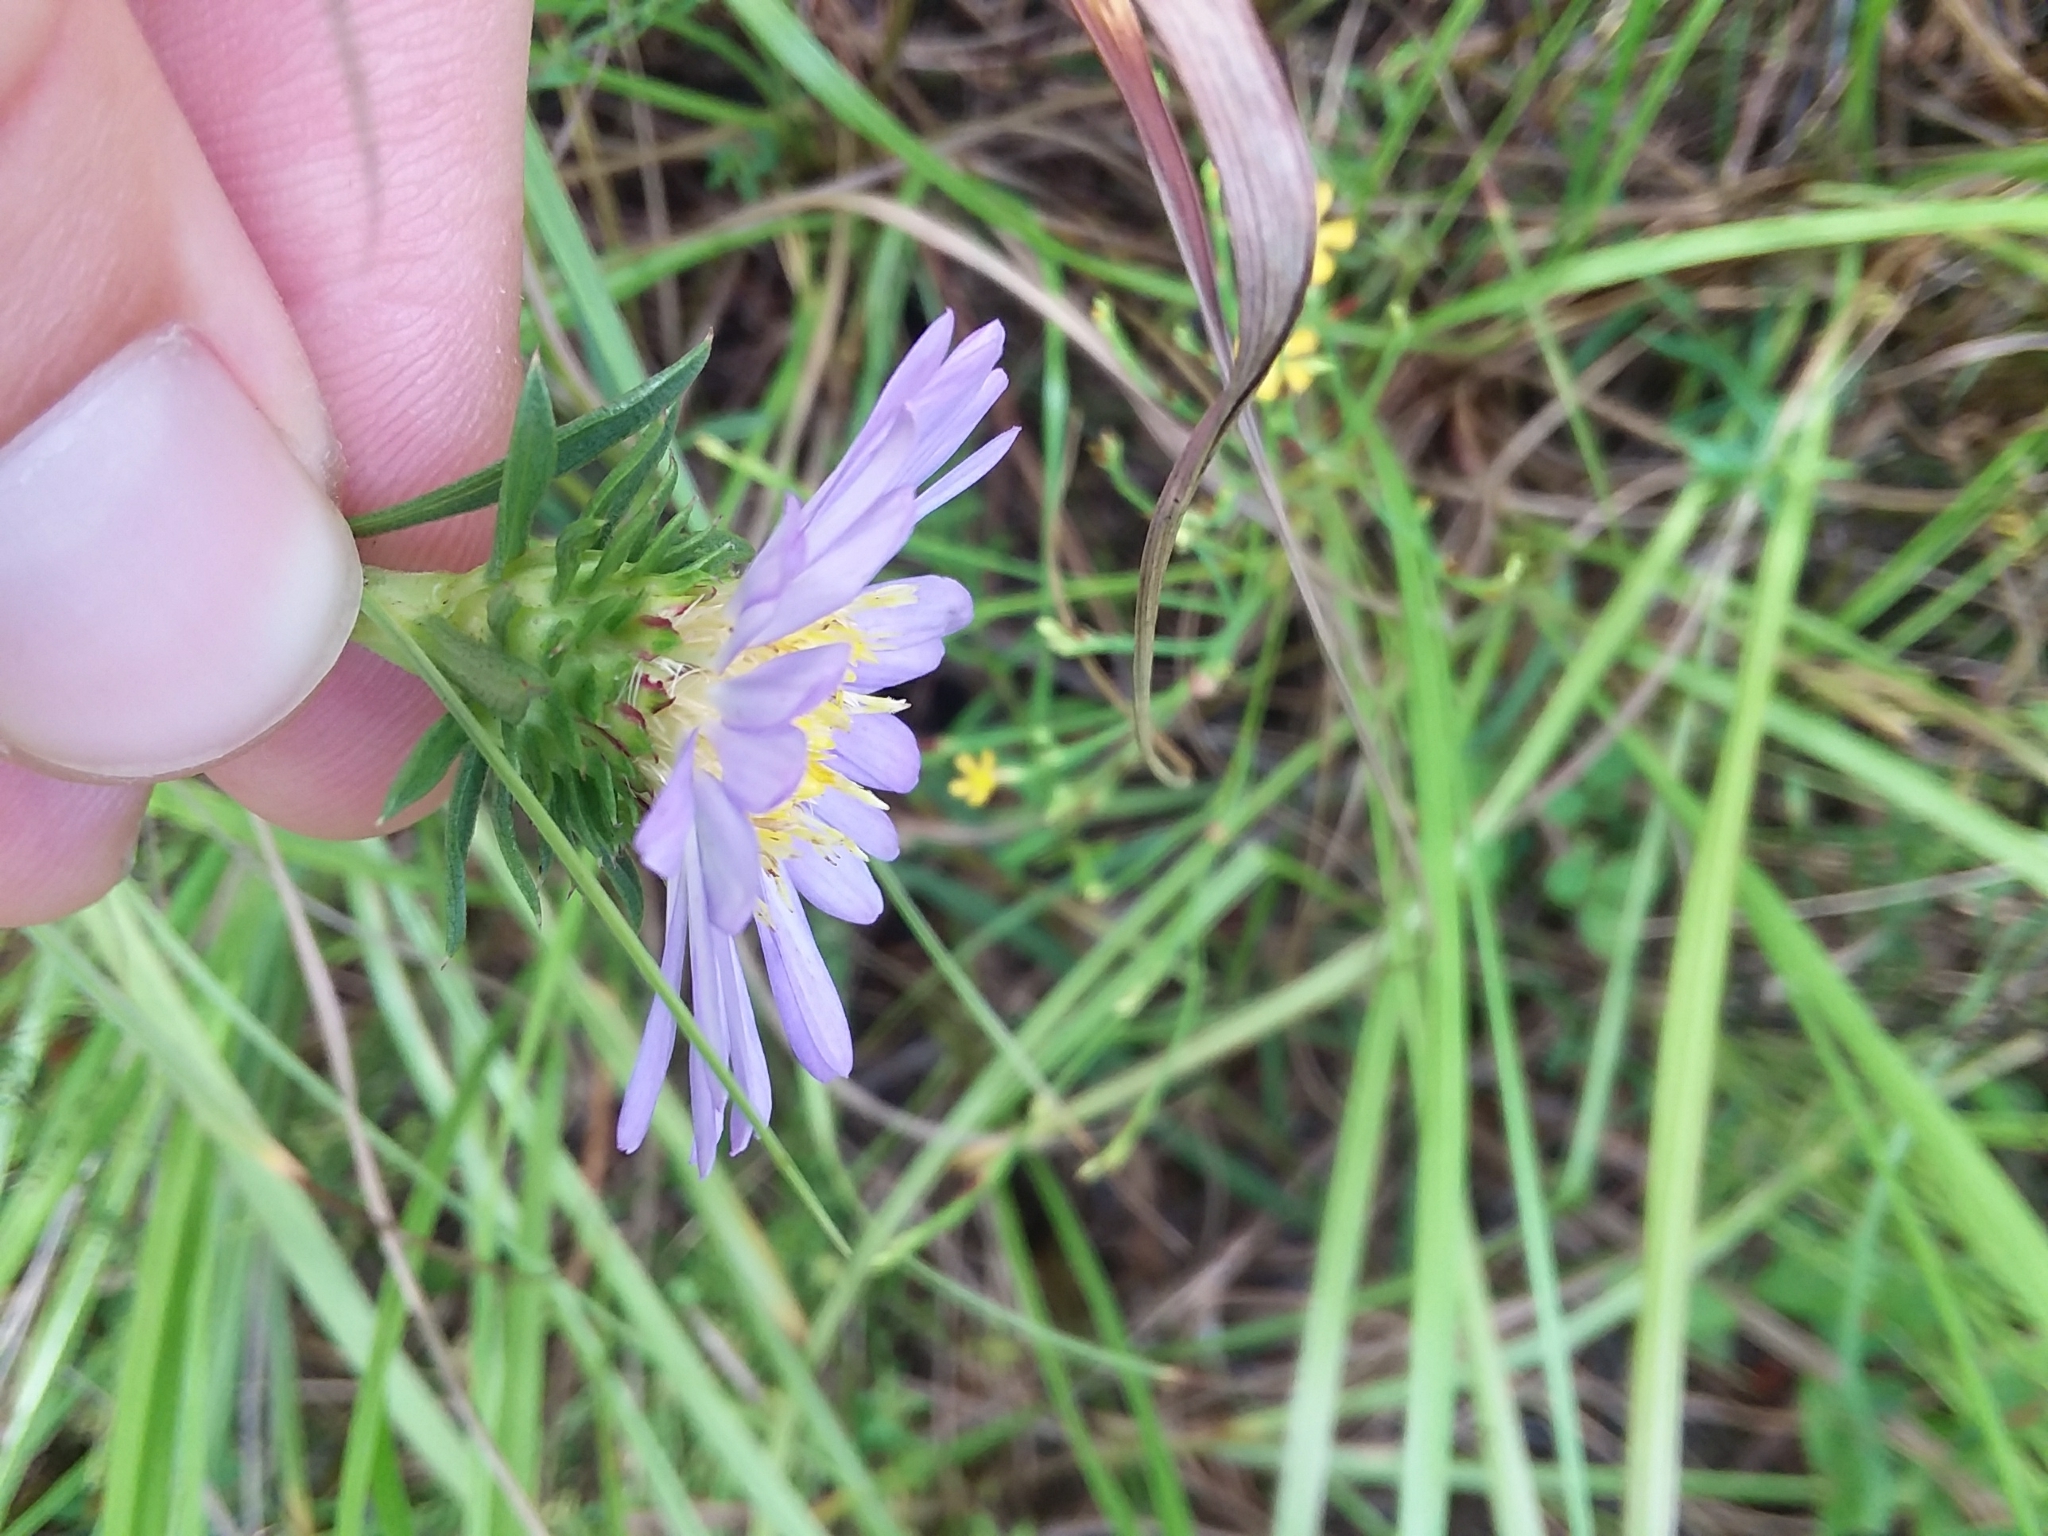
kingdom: Plantae
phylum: Tracheophyta
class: Magnoliopsida
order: Asterales
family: Asteraceae
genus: Eurybia
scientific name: Eurybia hemispherica
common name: Showy aster
